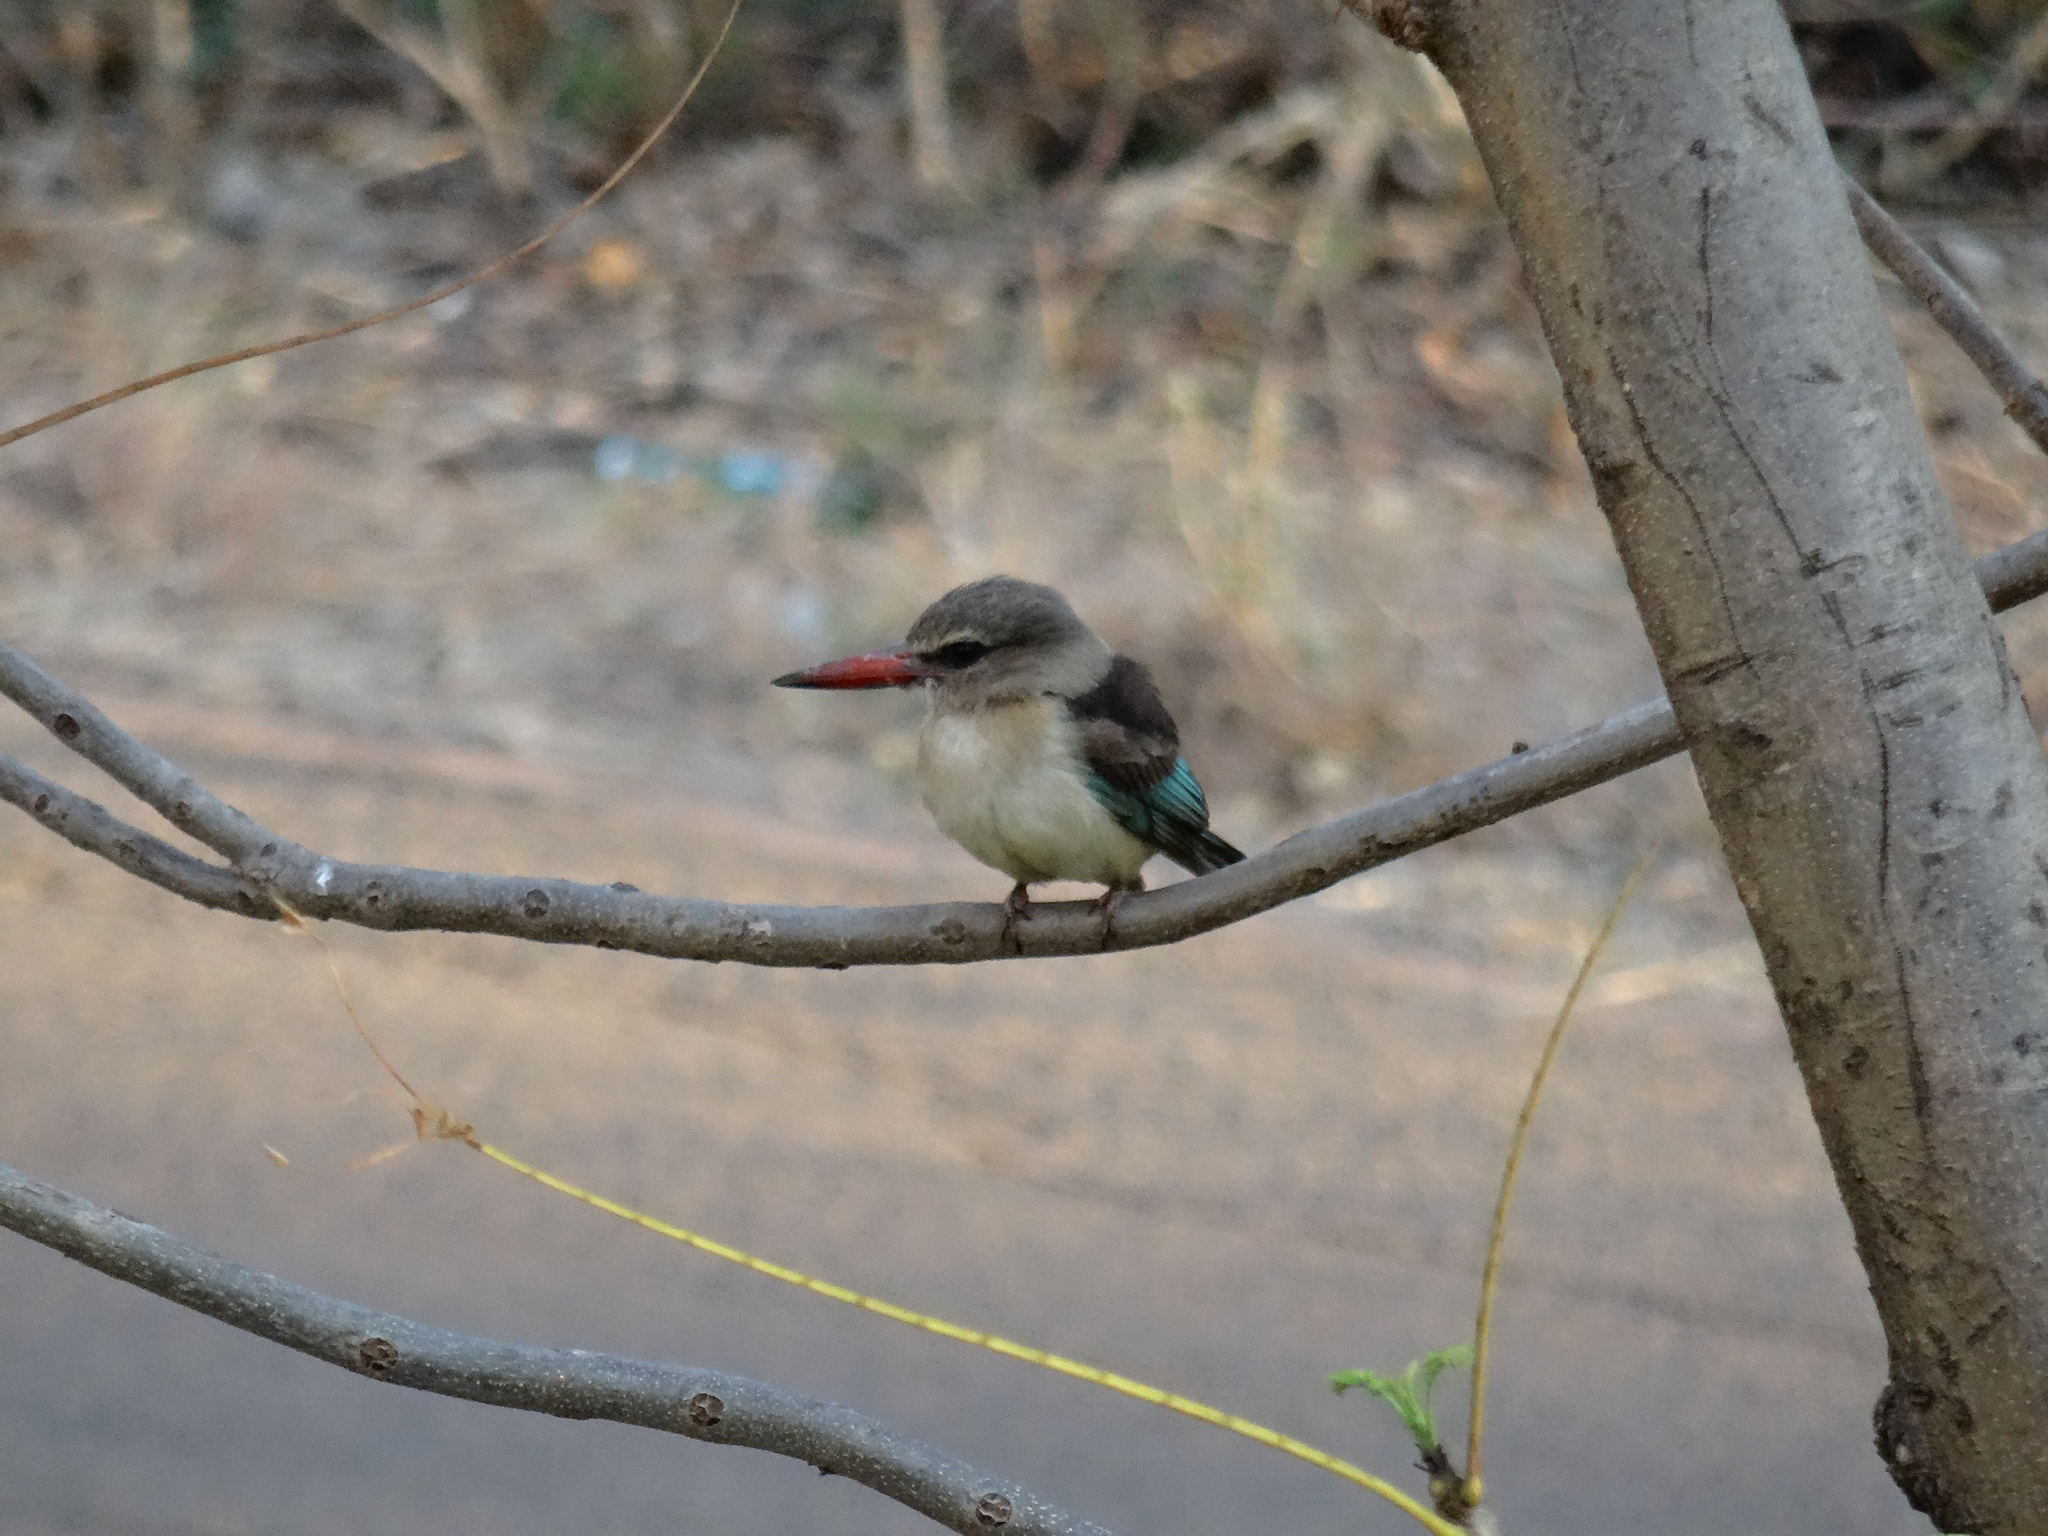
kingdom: Animalia
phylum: Chordata
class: Aves
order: Coraciiformes
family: Alcedinidae
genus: Halcyon
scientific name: Halcyon albiventris
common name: Brown-hooded kingfisher
